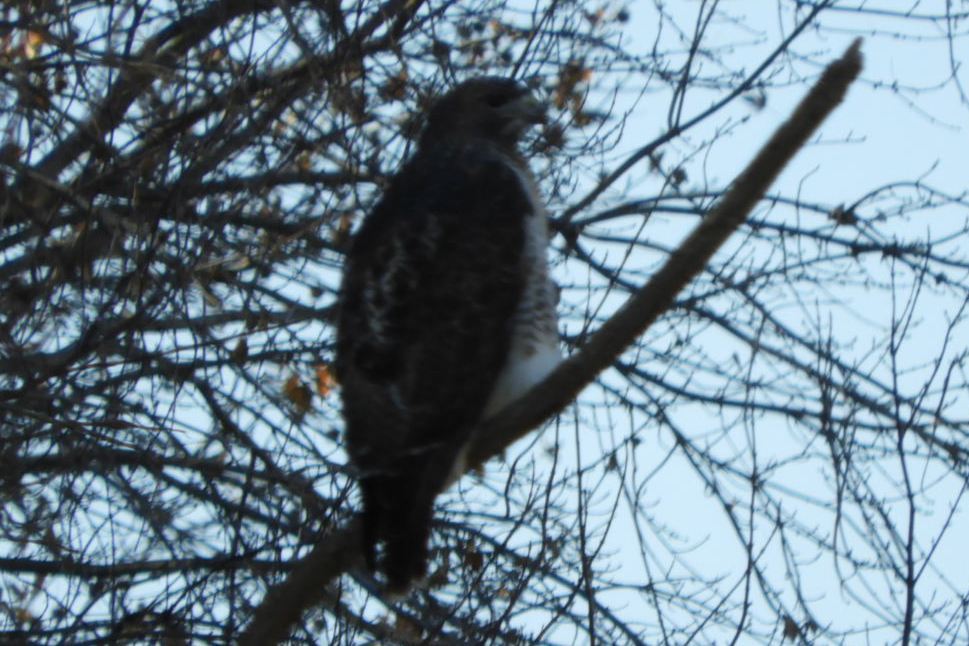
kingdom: Animalia
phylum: Chordata
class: Aves
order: Accipitriformes
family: Accipitridae
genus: Buteo
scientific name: Buteo jamaicensis
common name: Red-tailed hawk
